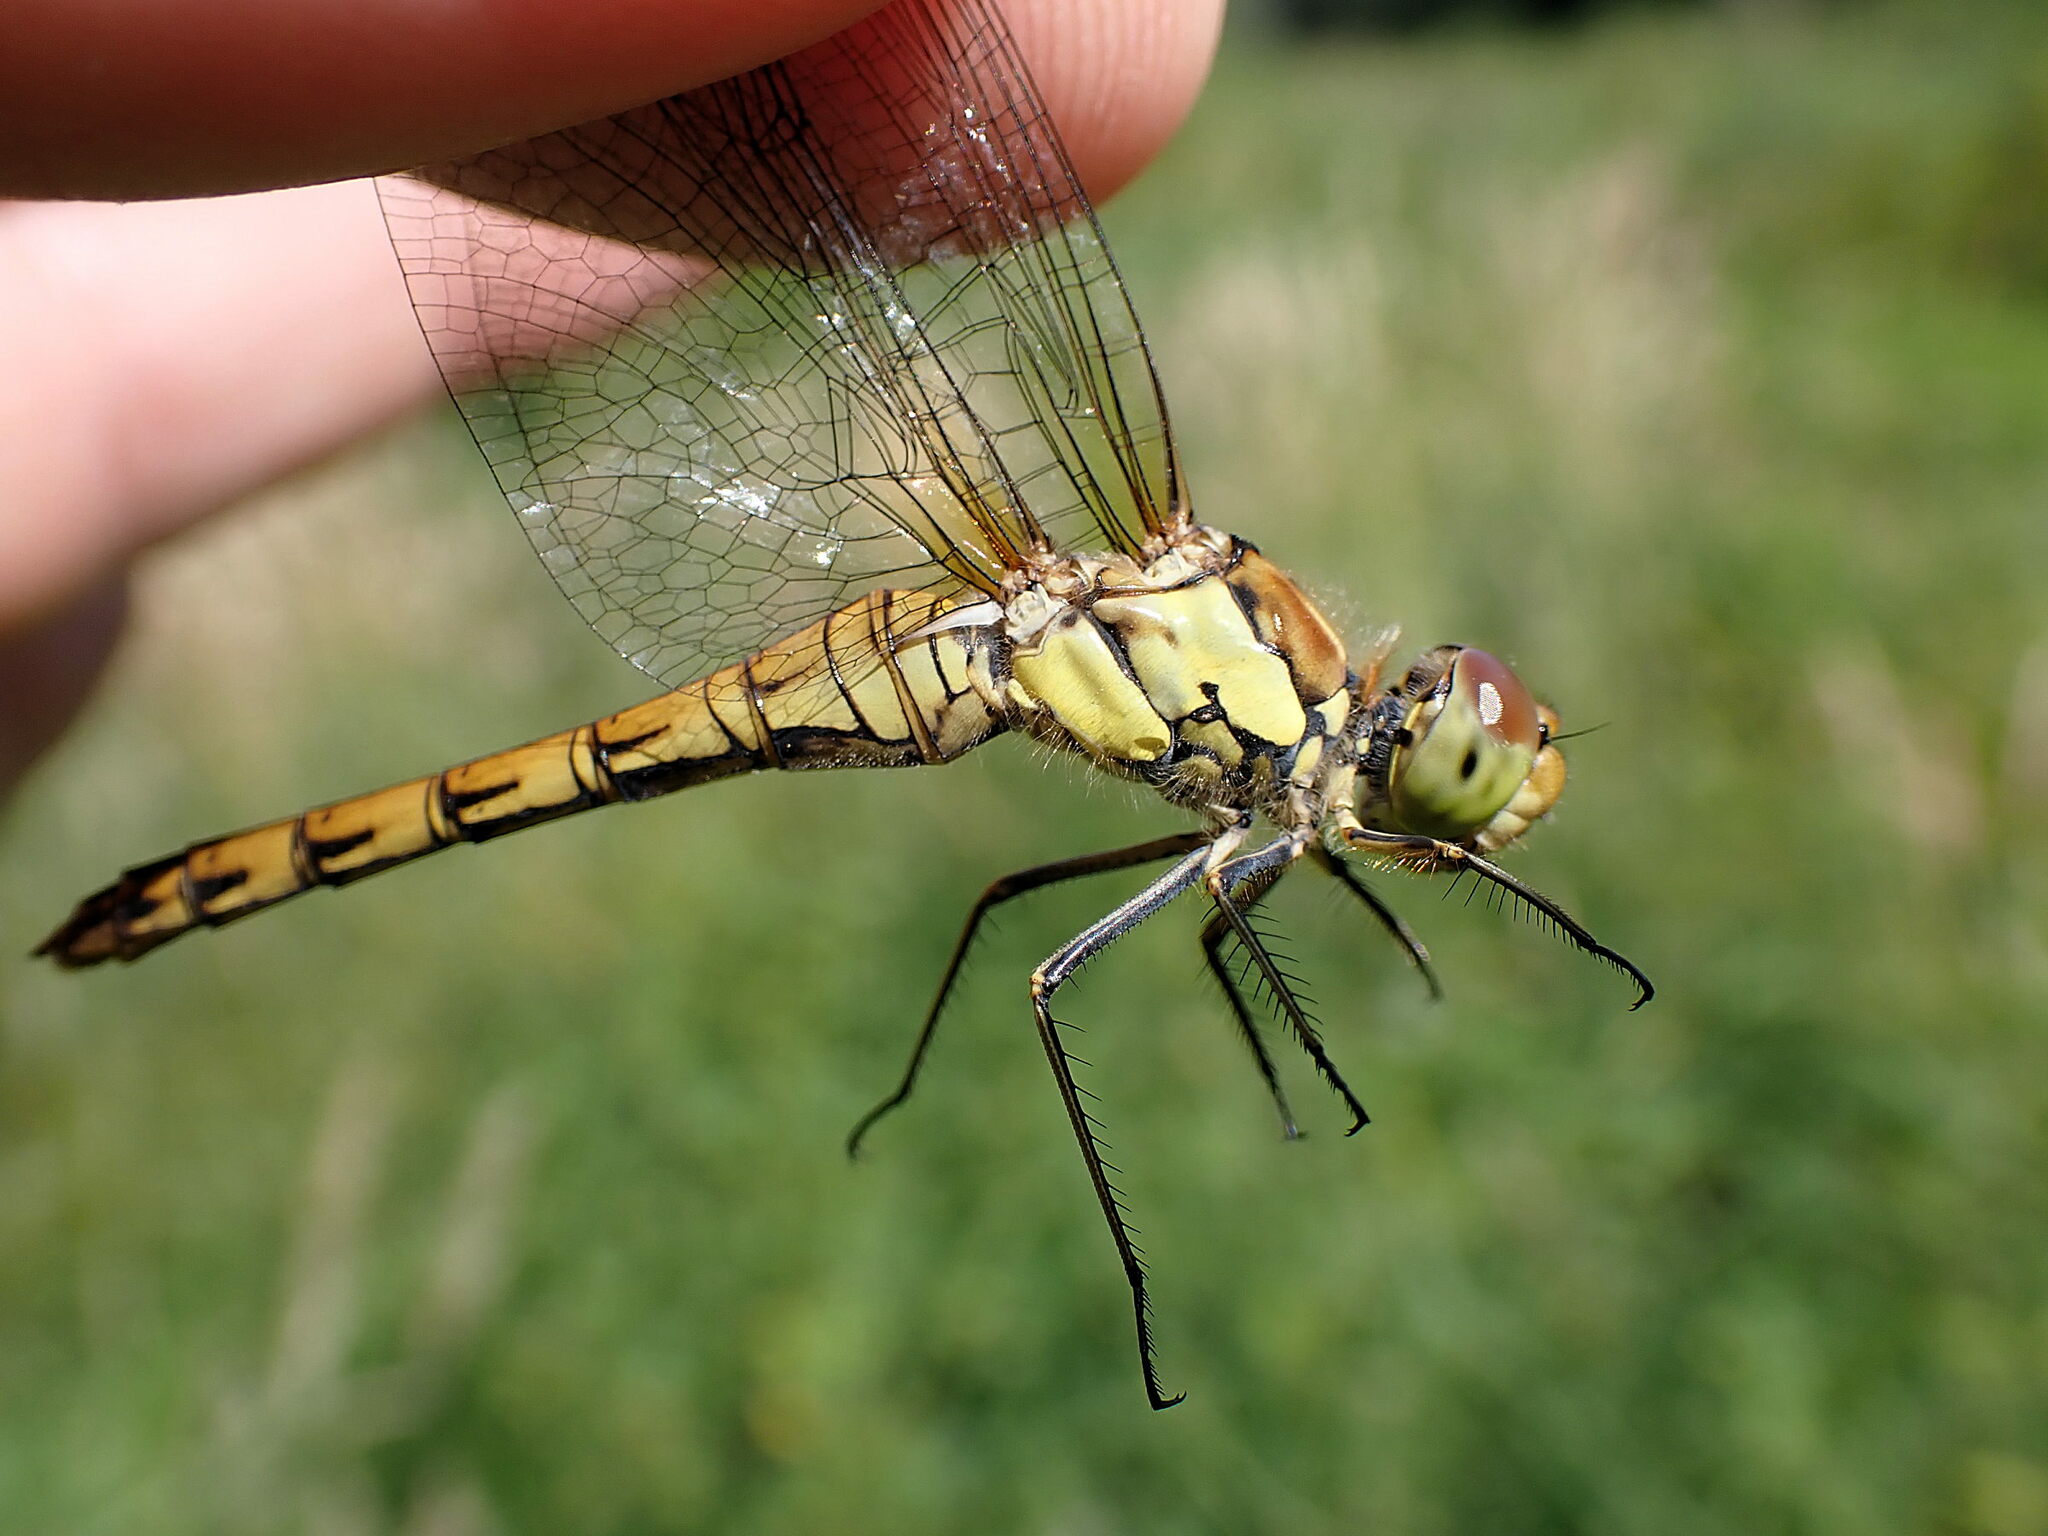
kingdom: Animalia
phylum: Arthropoda
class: Insecta
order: Odonata
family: Libellulidae
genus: Sympetrum
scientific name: Sympetrum striolatum
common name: Common darter
